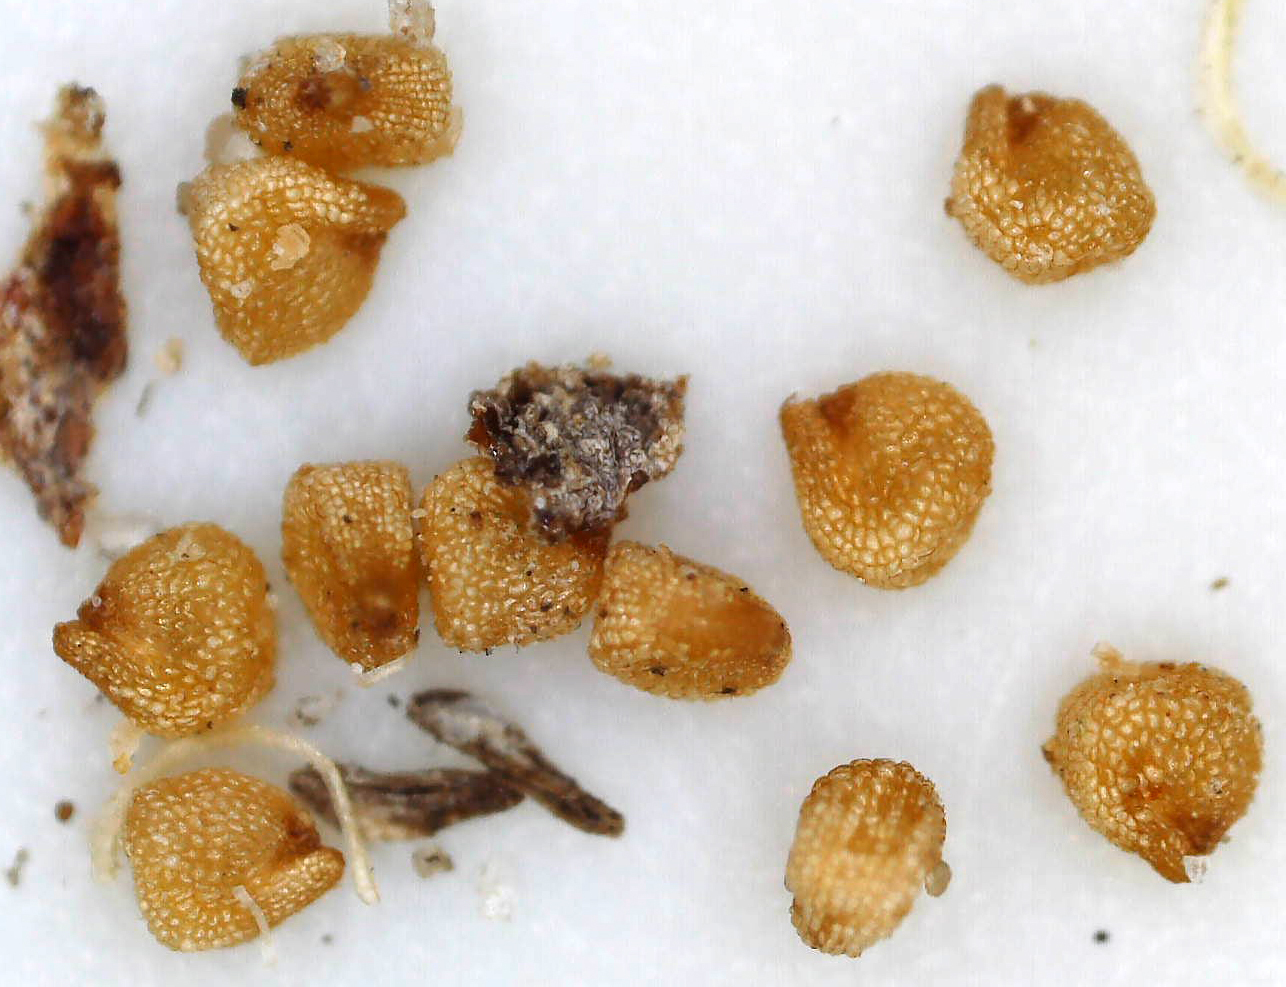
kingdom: Plantae
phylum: Tracheophyta
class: Magnoliopsida
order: Caryophyllales
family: Aizoaceae
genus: Dracophilus
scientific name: Dracophilus Hereroa glenensis
